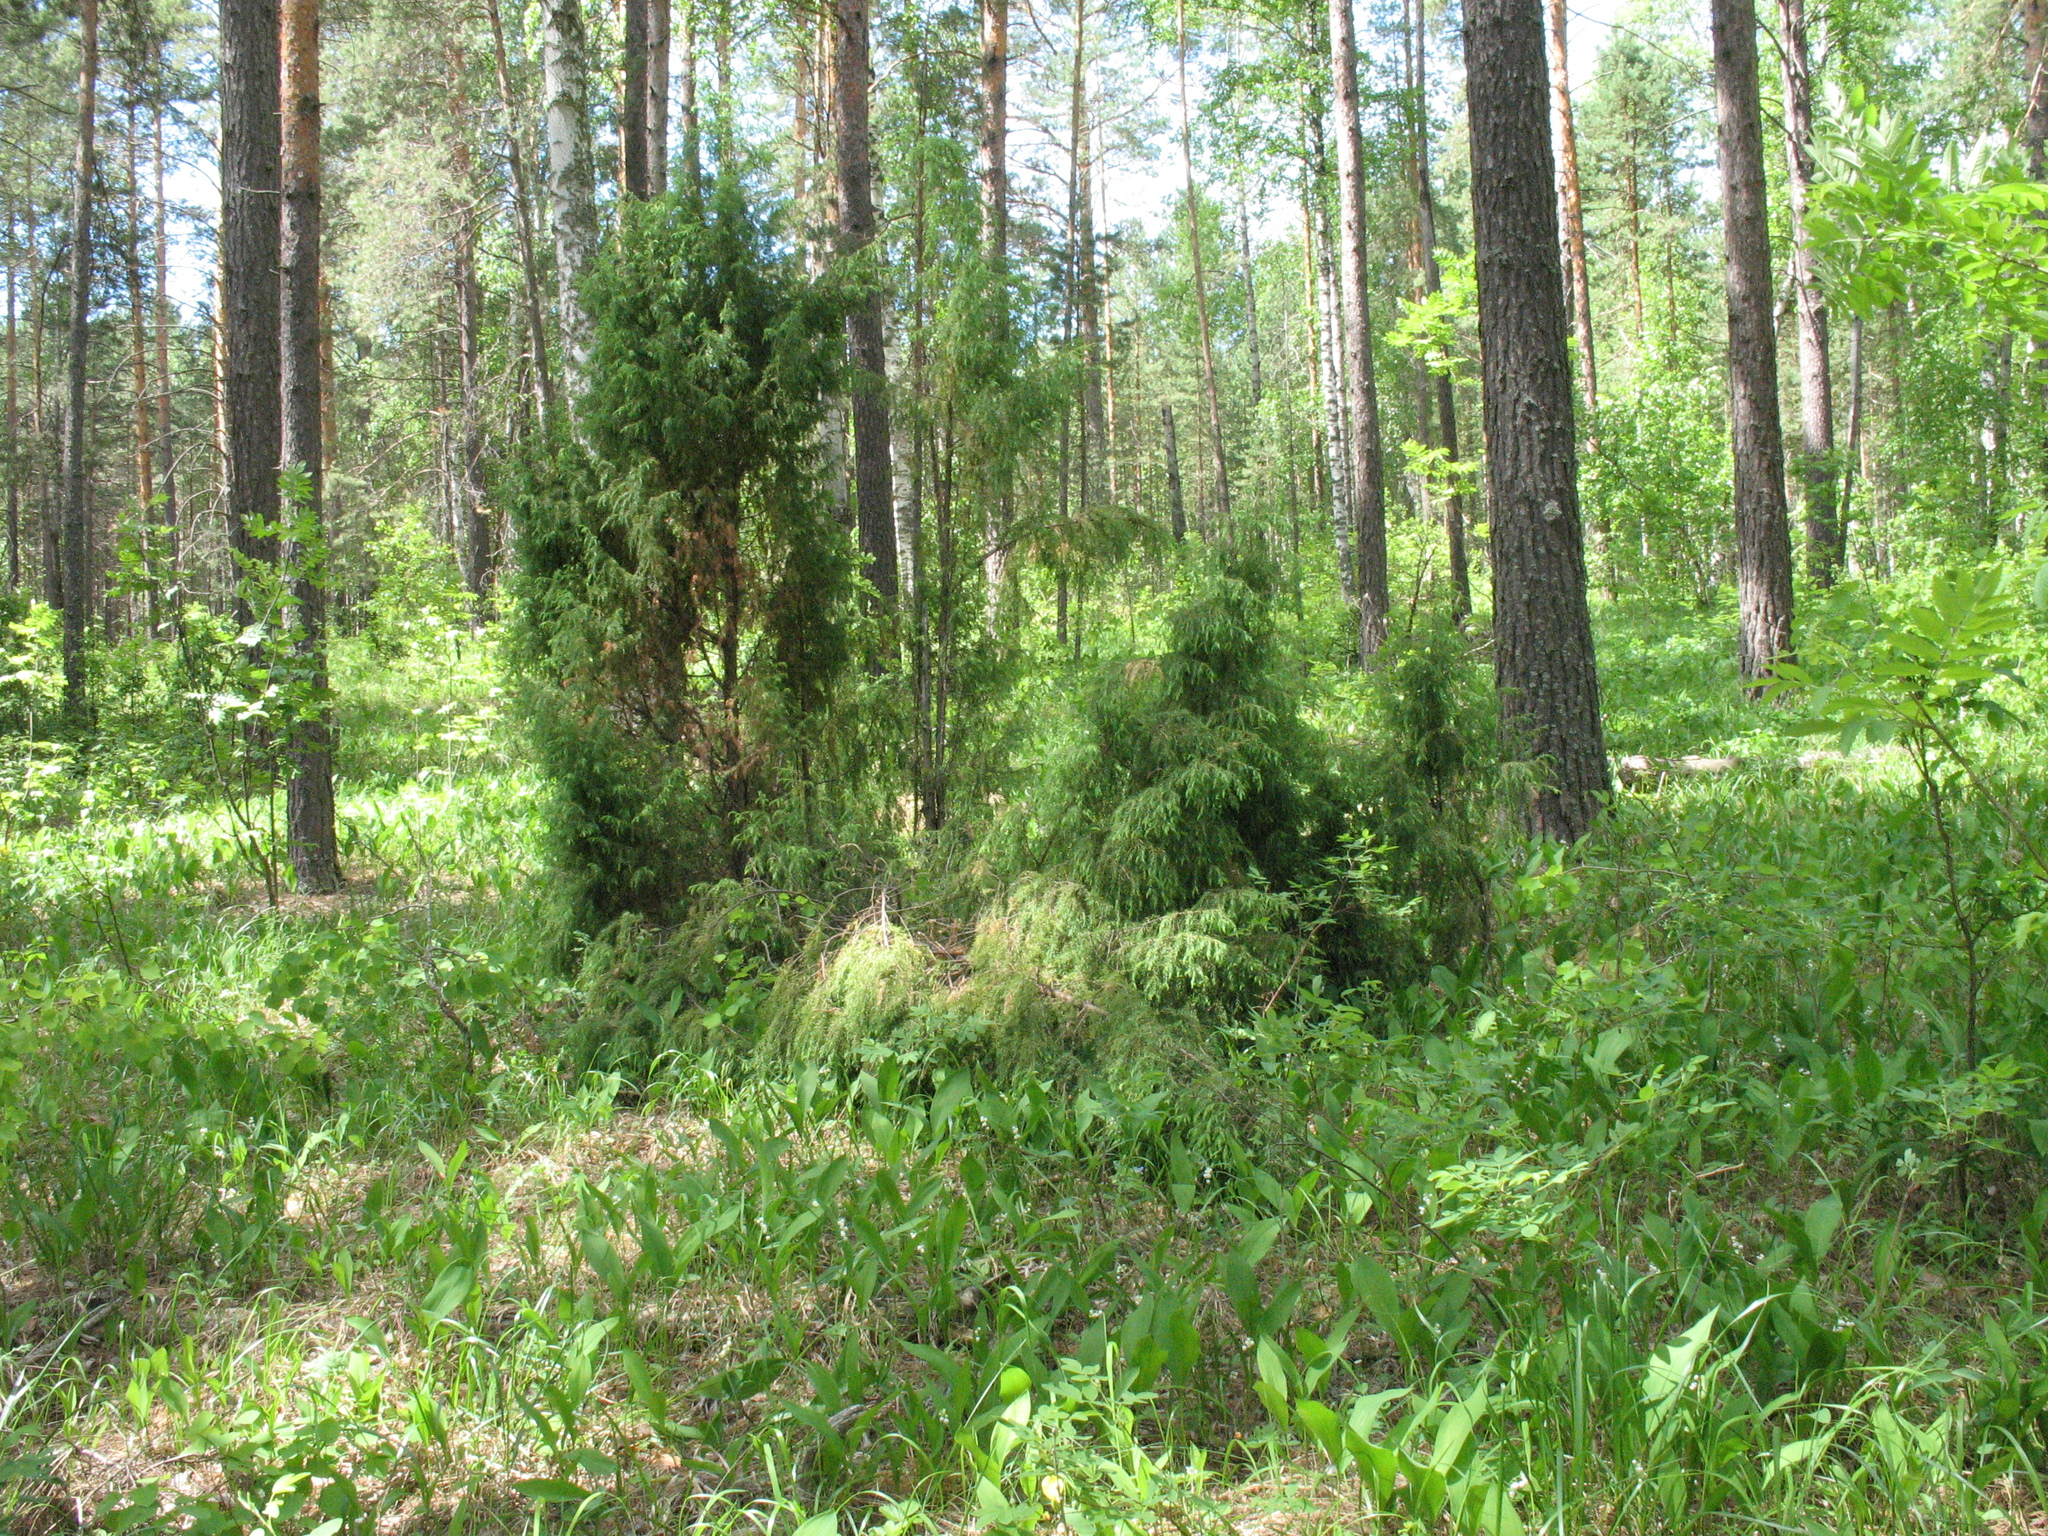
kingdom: Plantae
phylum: Tracheophyta
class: Pinopsida
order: Pinales
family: Cupressaceae
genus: Juniperus
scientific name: Juniperus communis
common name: Common juniper
